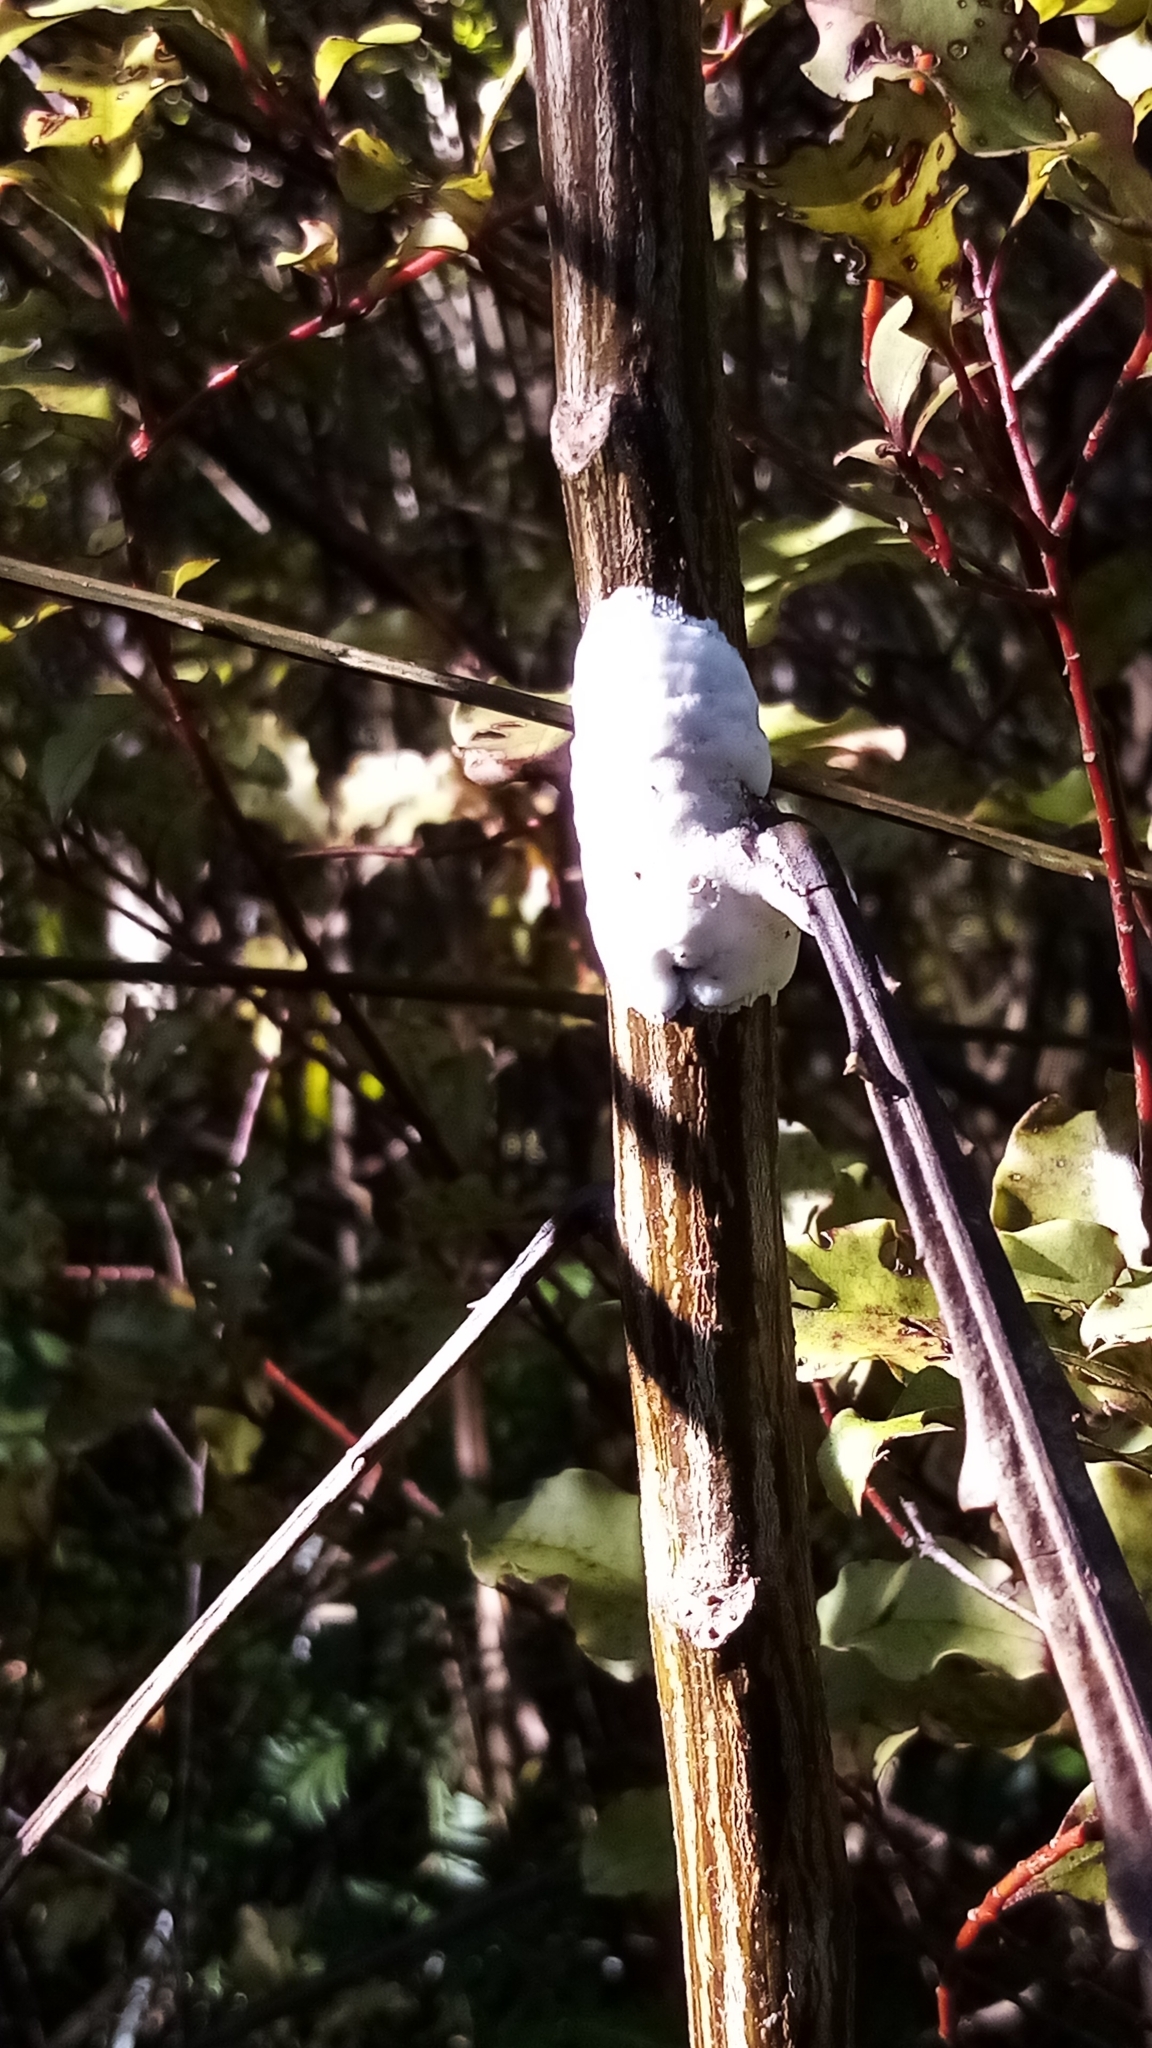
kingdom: Fungi
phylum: Basidiomycota
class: Pucciniomycetes
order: Septobasidiales
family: Septobasidiaceae
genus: Septobasidium
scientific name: Septobasidium simmondsii
